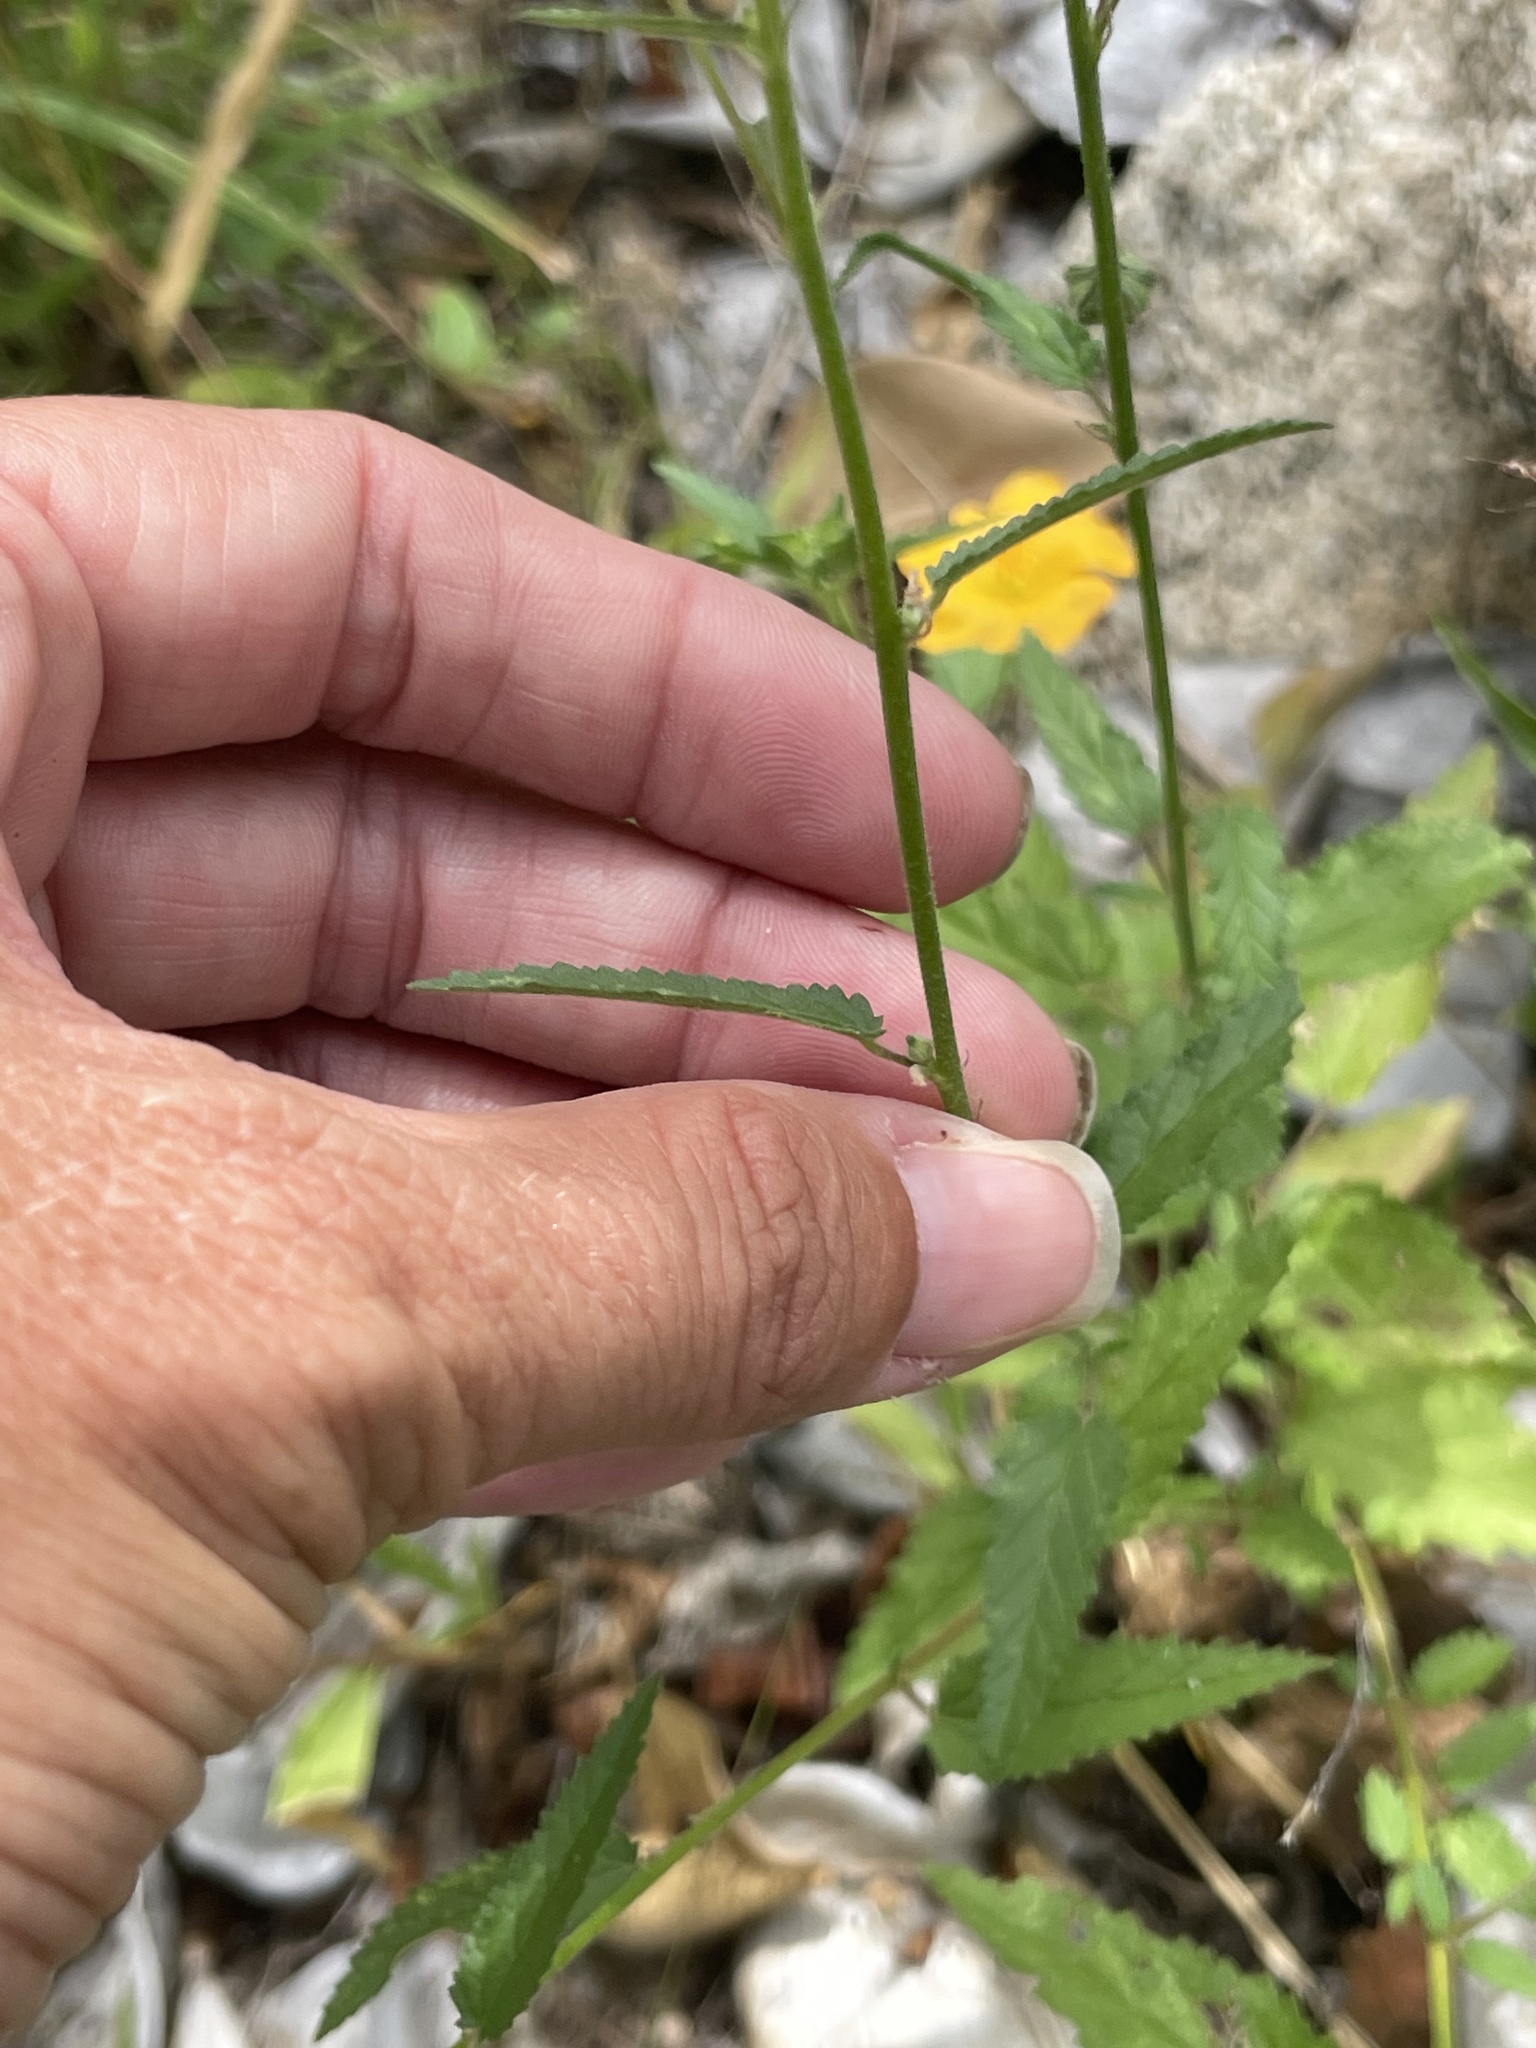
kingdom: Plantae
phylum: Tracheophyta
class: Magnoliopsida
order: Malvales
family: Malvaceae
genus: Sida
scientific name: Sida xanti
